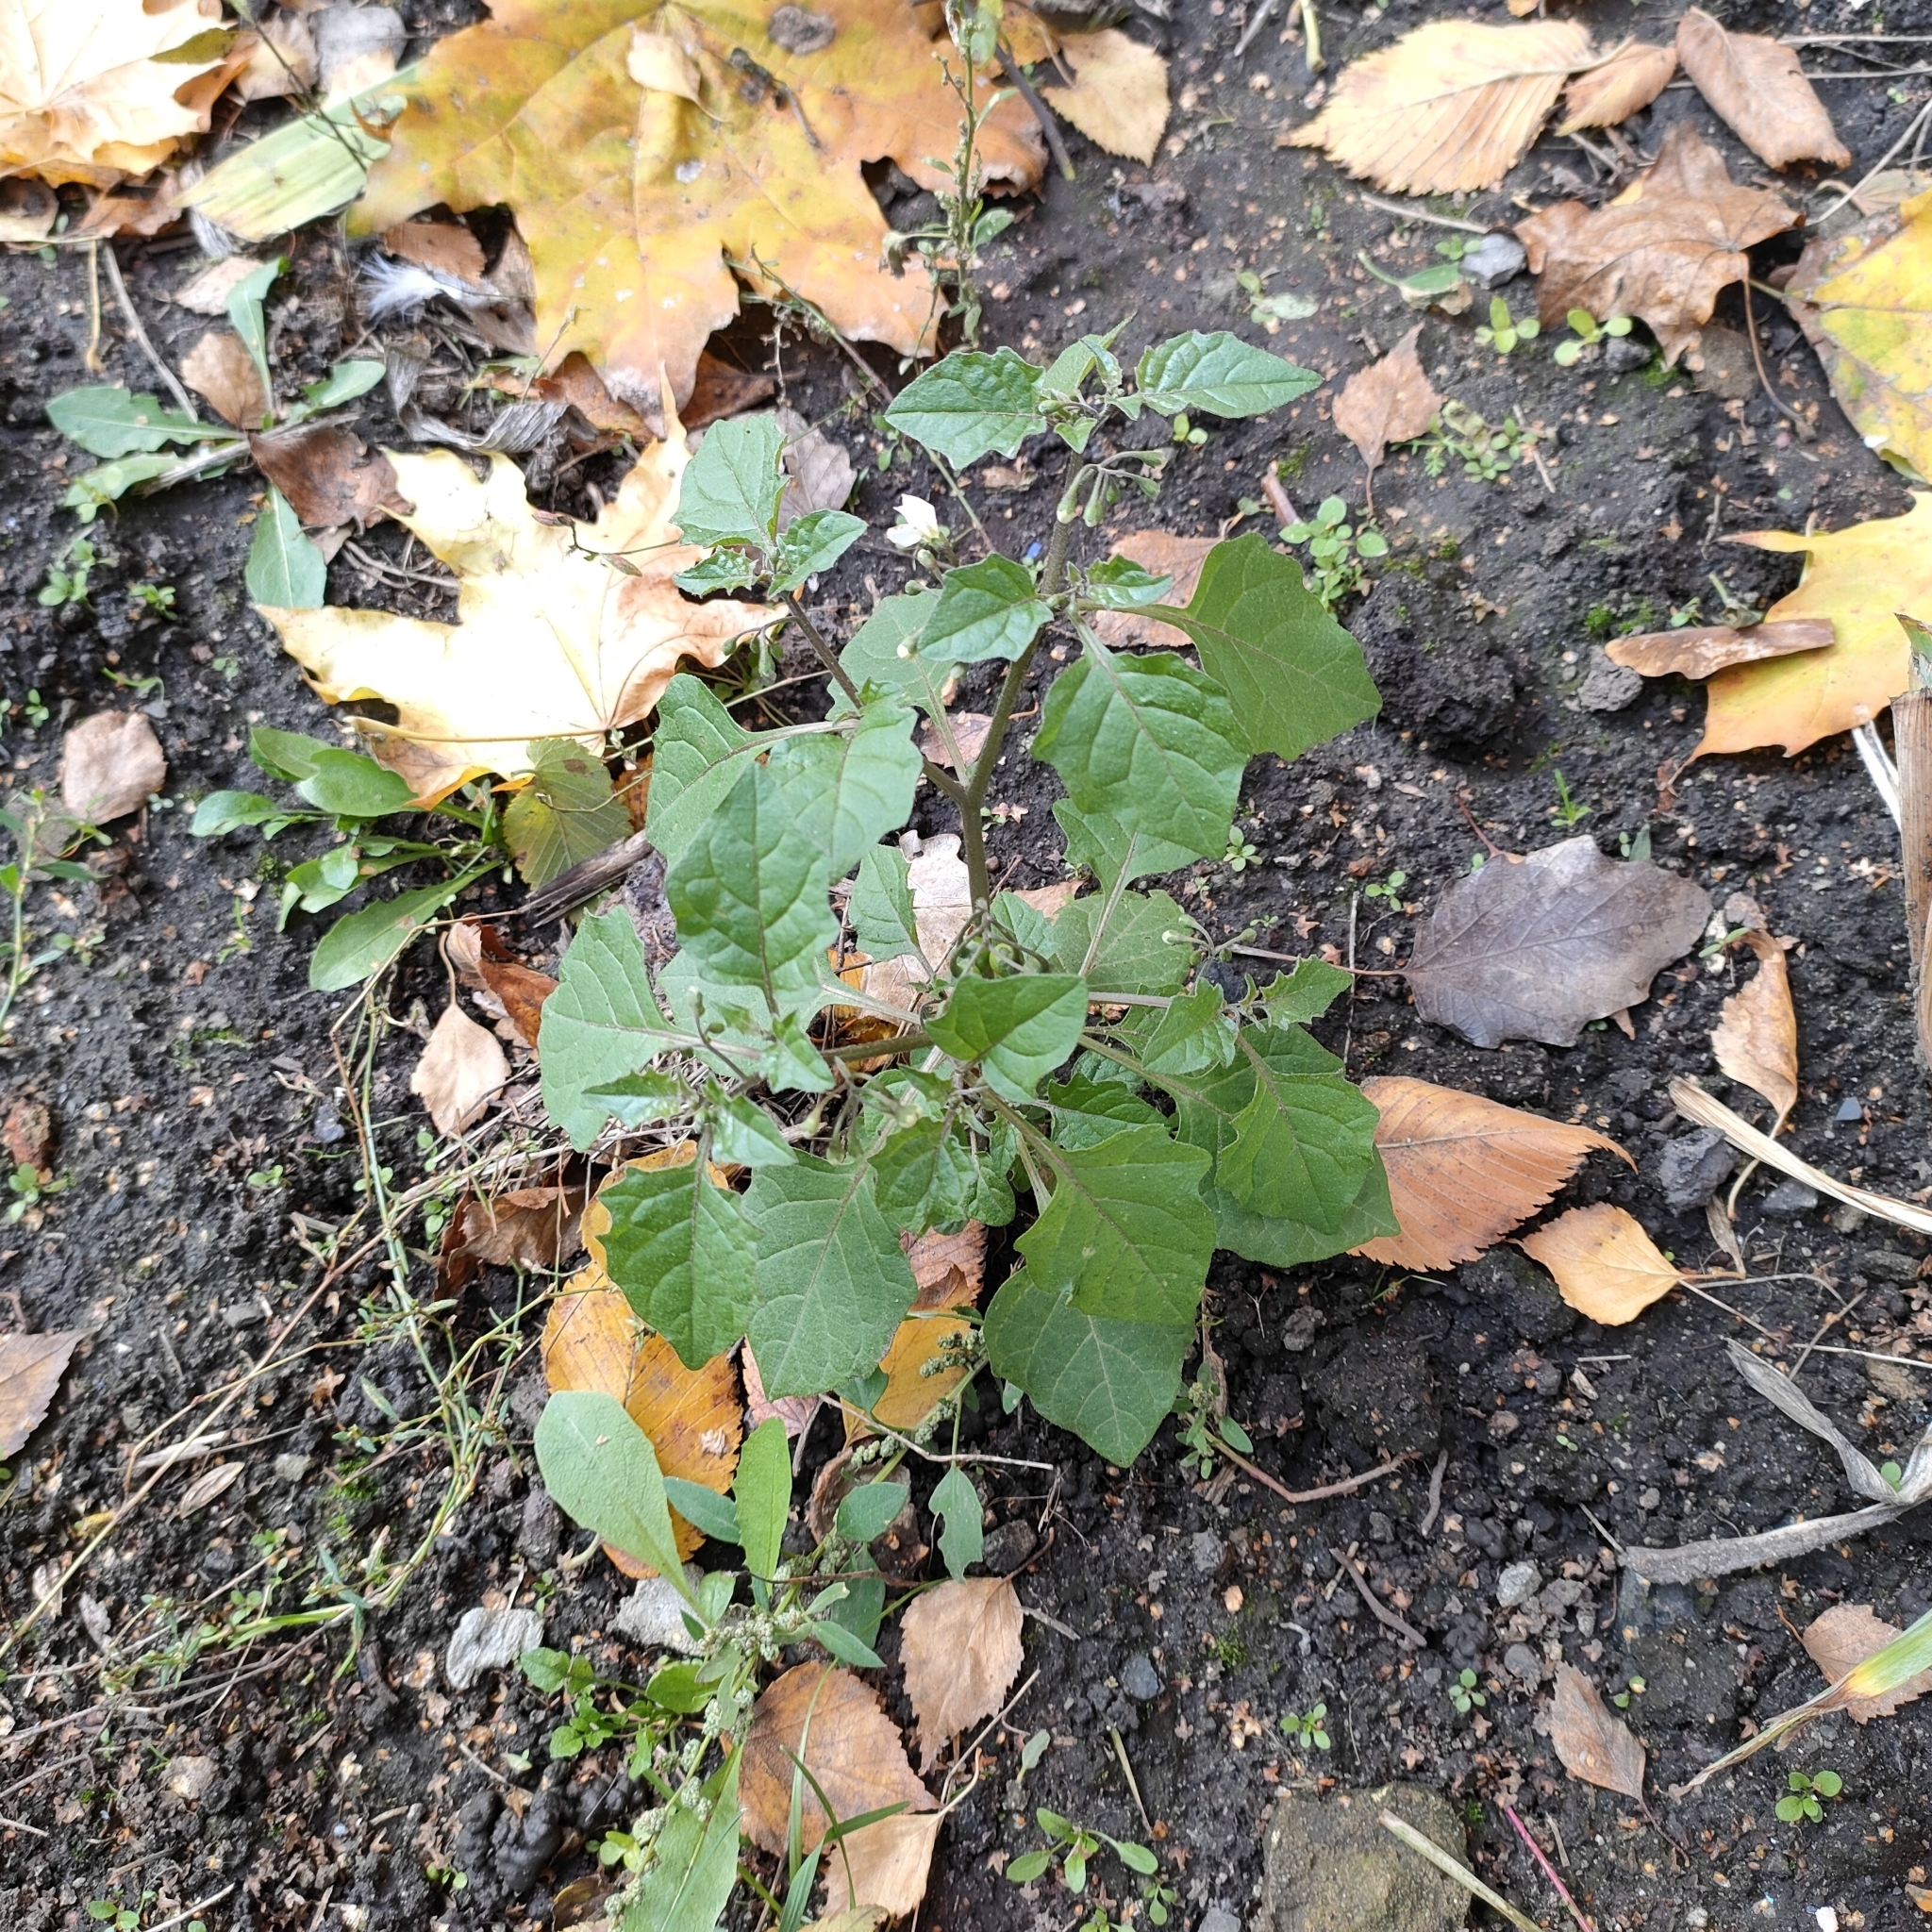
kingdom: Plantae
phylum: Tracheophyta
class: Magnoliopsida
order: Solanales
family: Solanaceae
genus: Solanum
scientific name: Solanum nigrum
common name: Black nightshade
